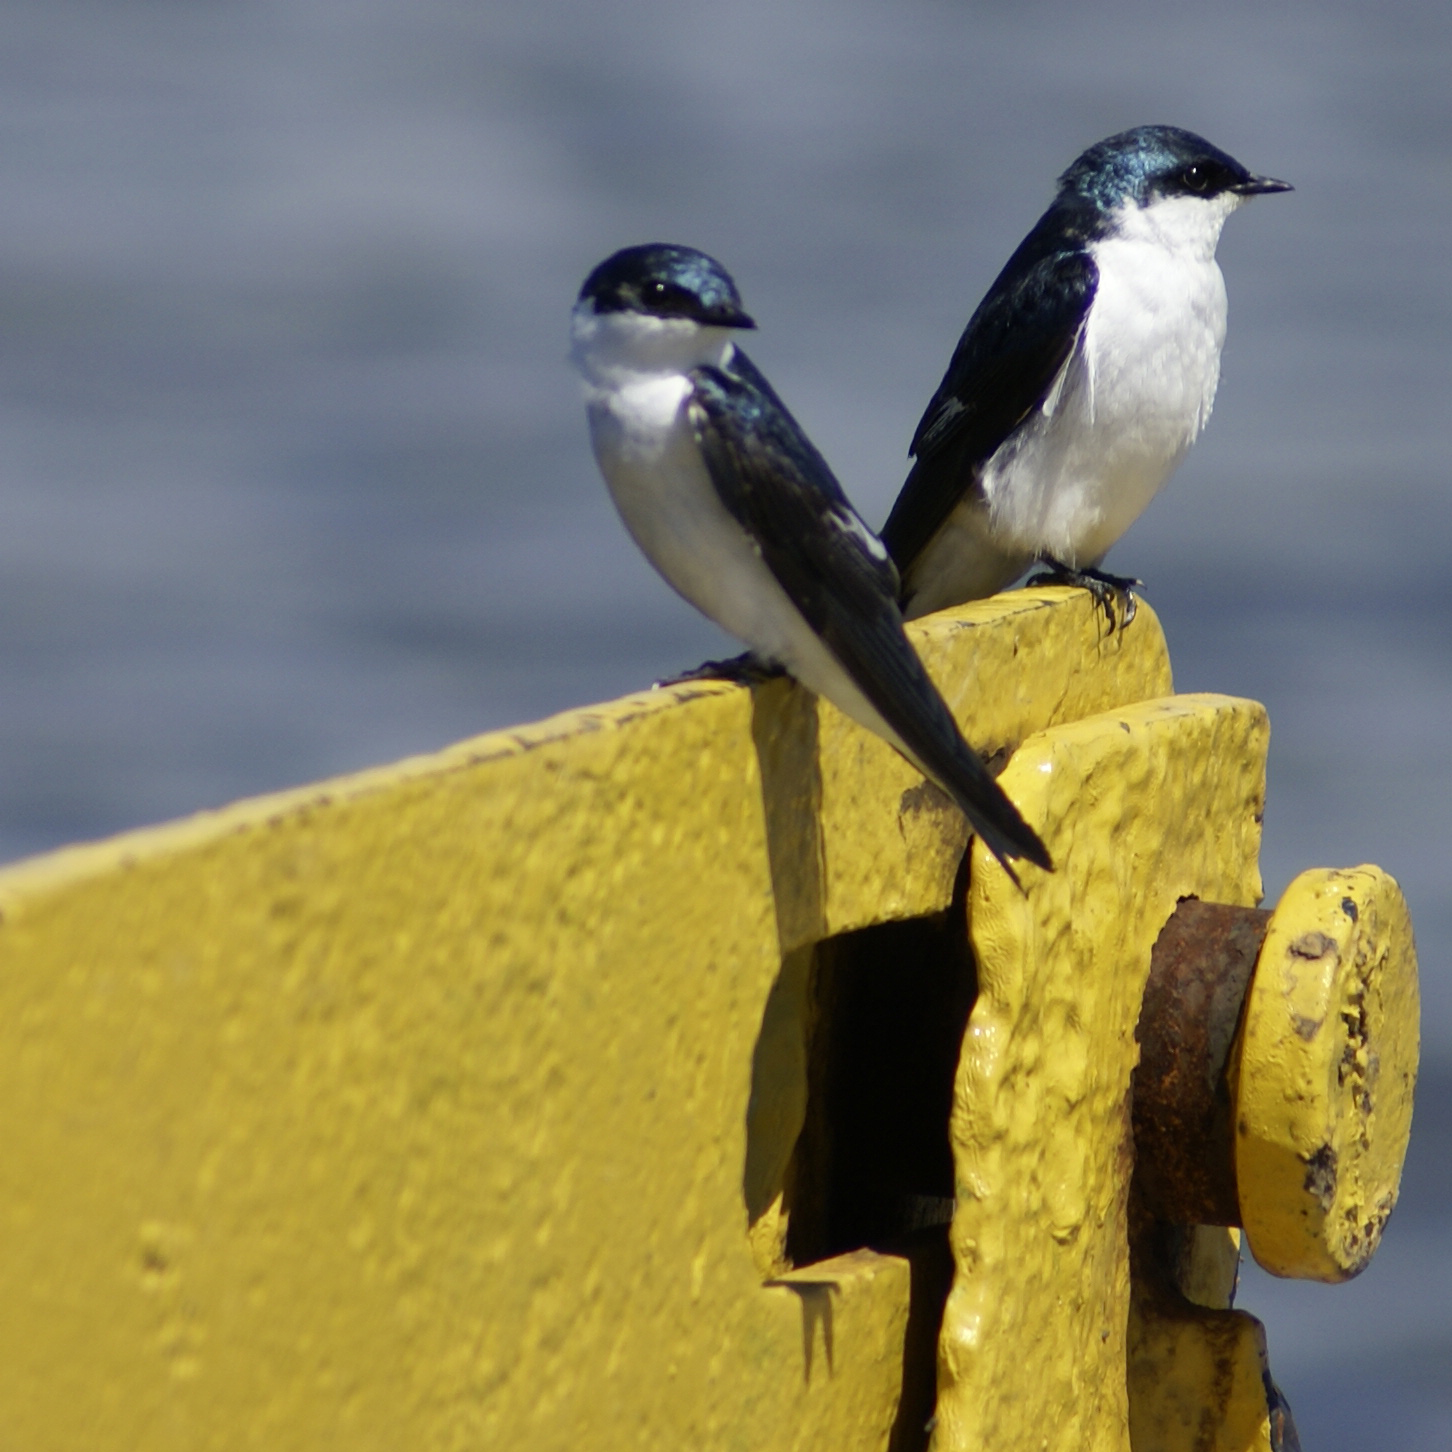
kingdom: Animalia
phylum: Chordata
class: Aves
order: Passeriformes
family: Hirundinidae
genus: Tachycineta
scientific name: Tachycineta albiventer
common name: White-winged swallow
